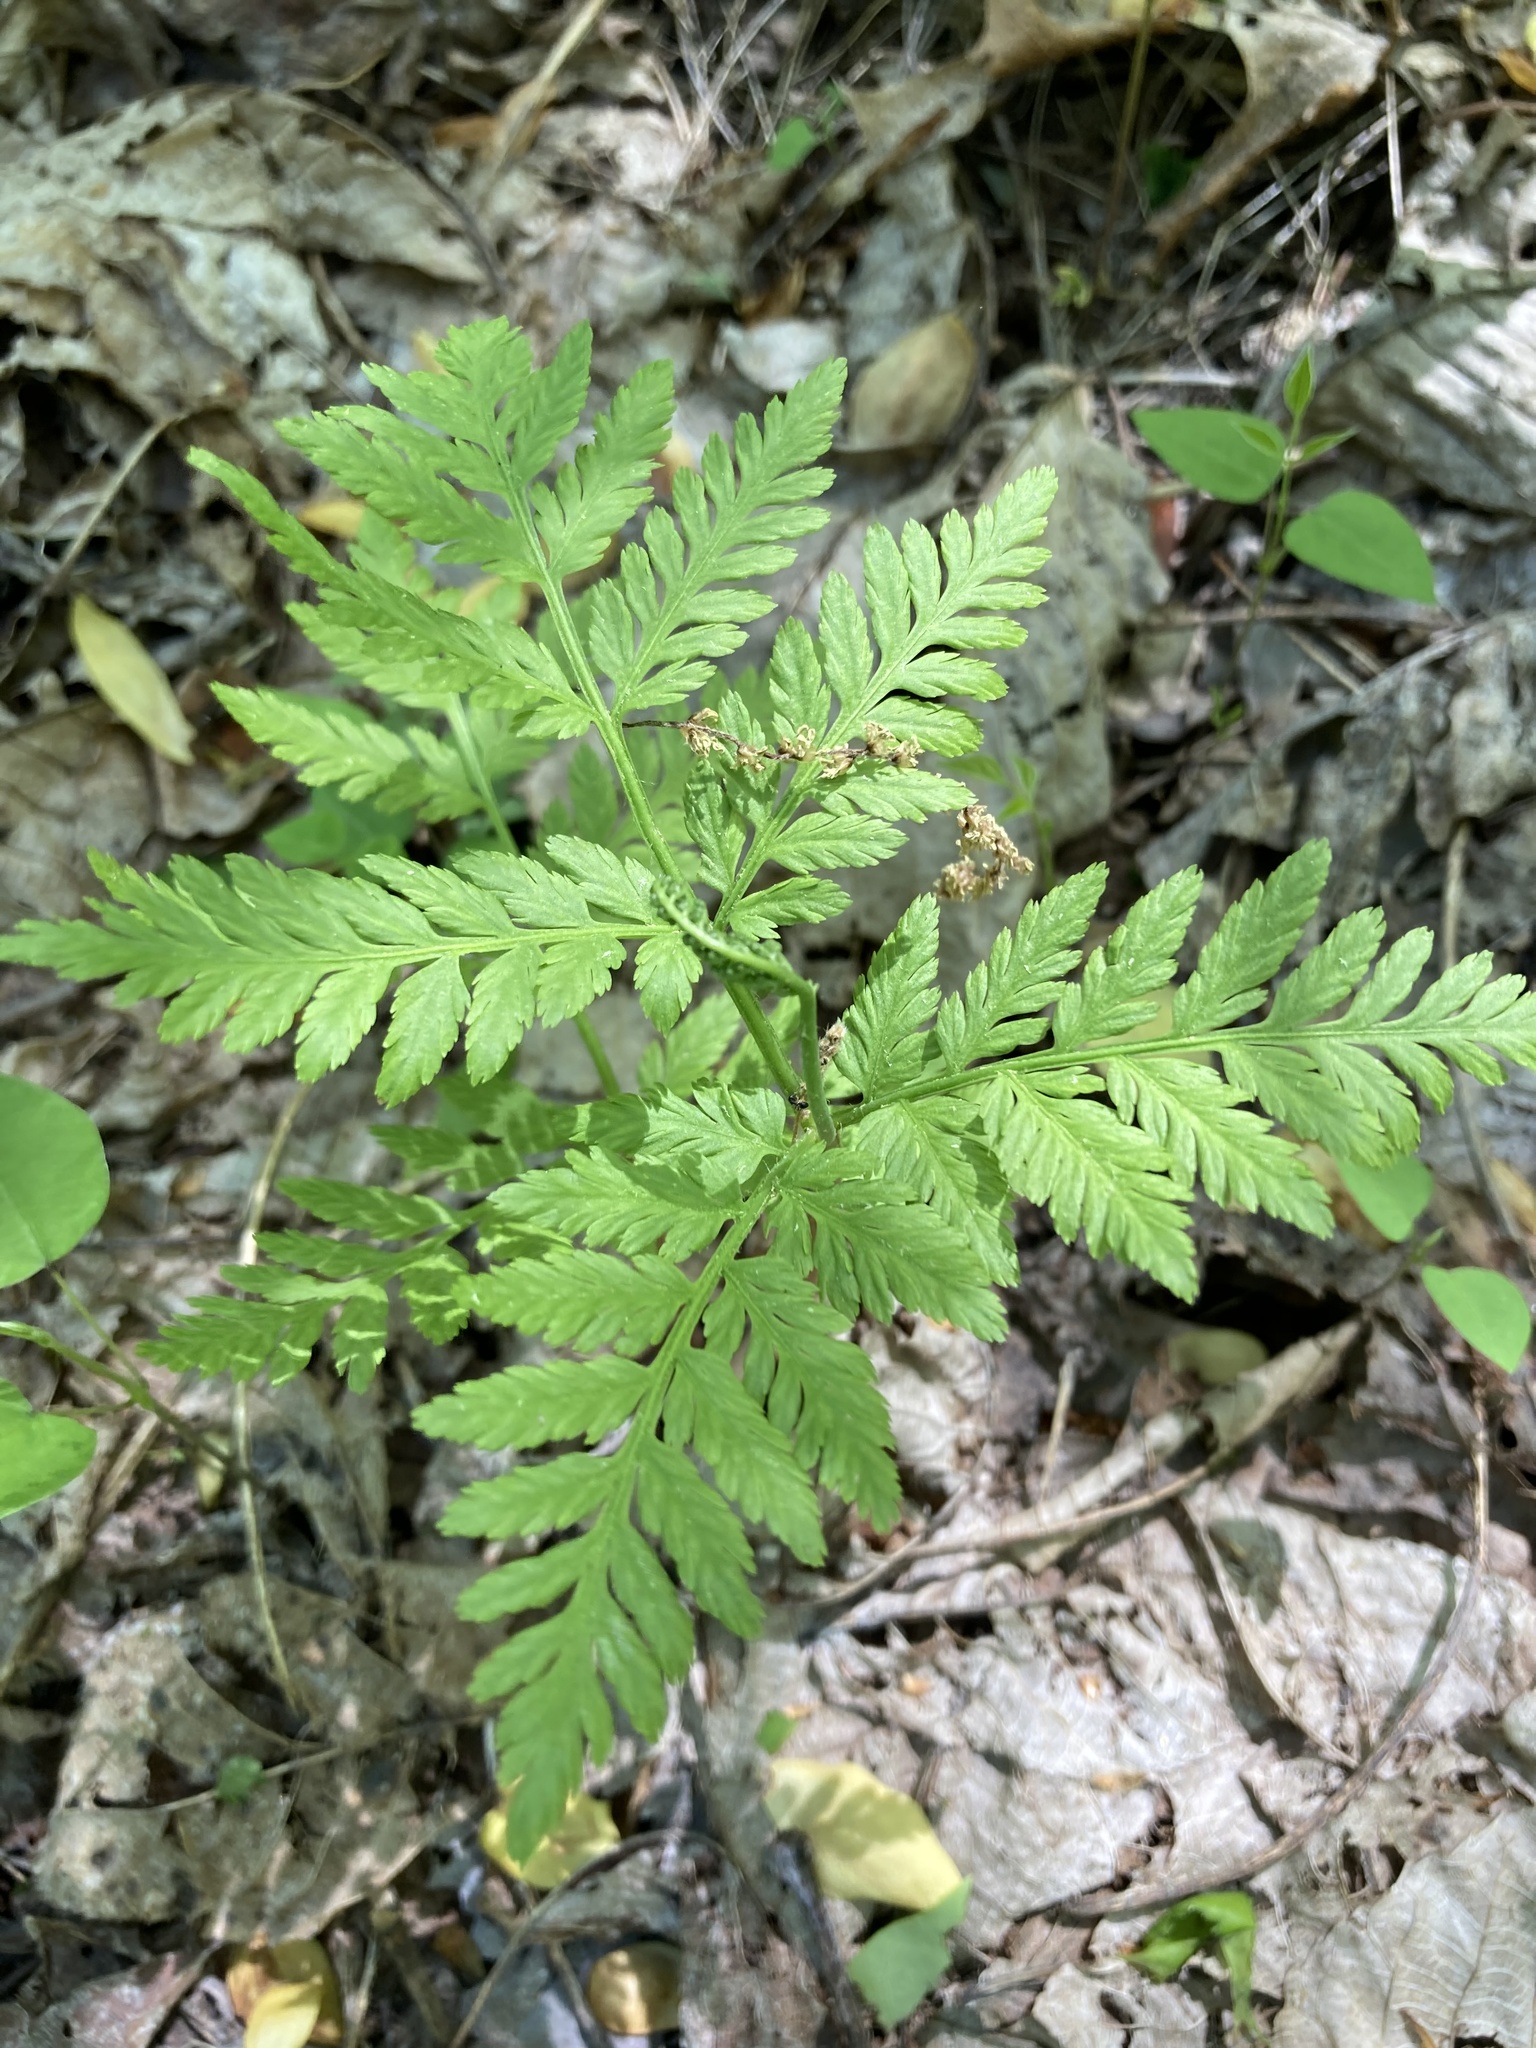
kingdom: Plantae
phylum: Tracheophyta
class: Polypodiopsida
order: Ophioglossales
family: Ophioglossaceae
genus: Botrypus
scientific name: Botrypus virginianus
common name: Common grapefern
